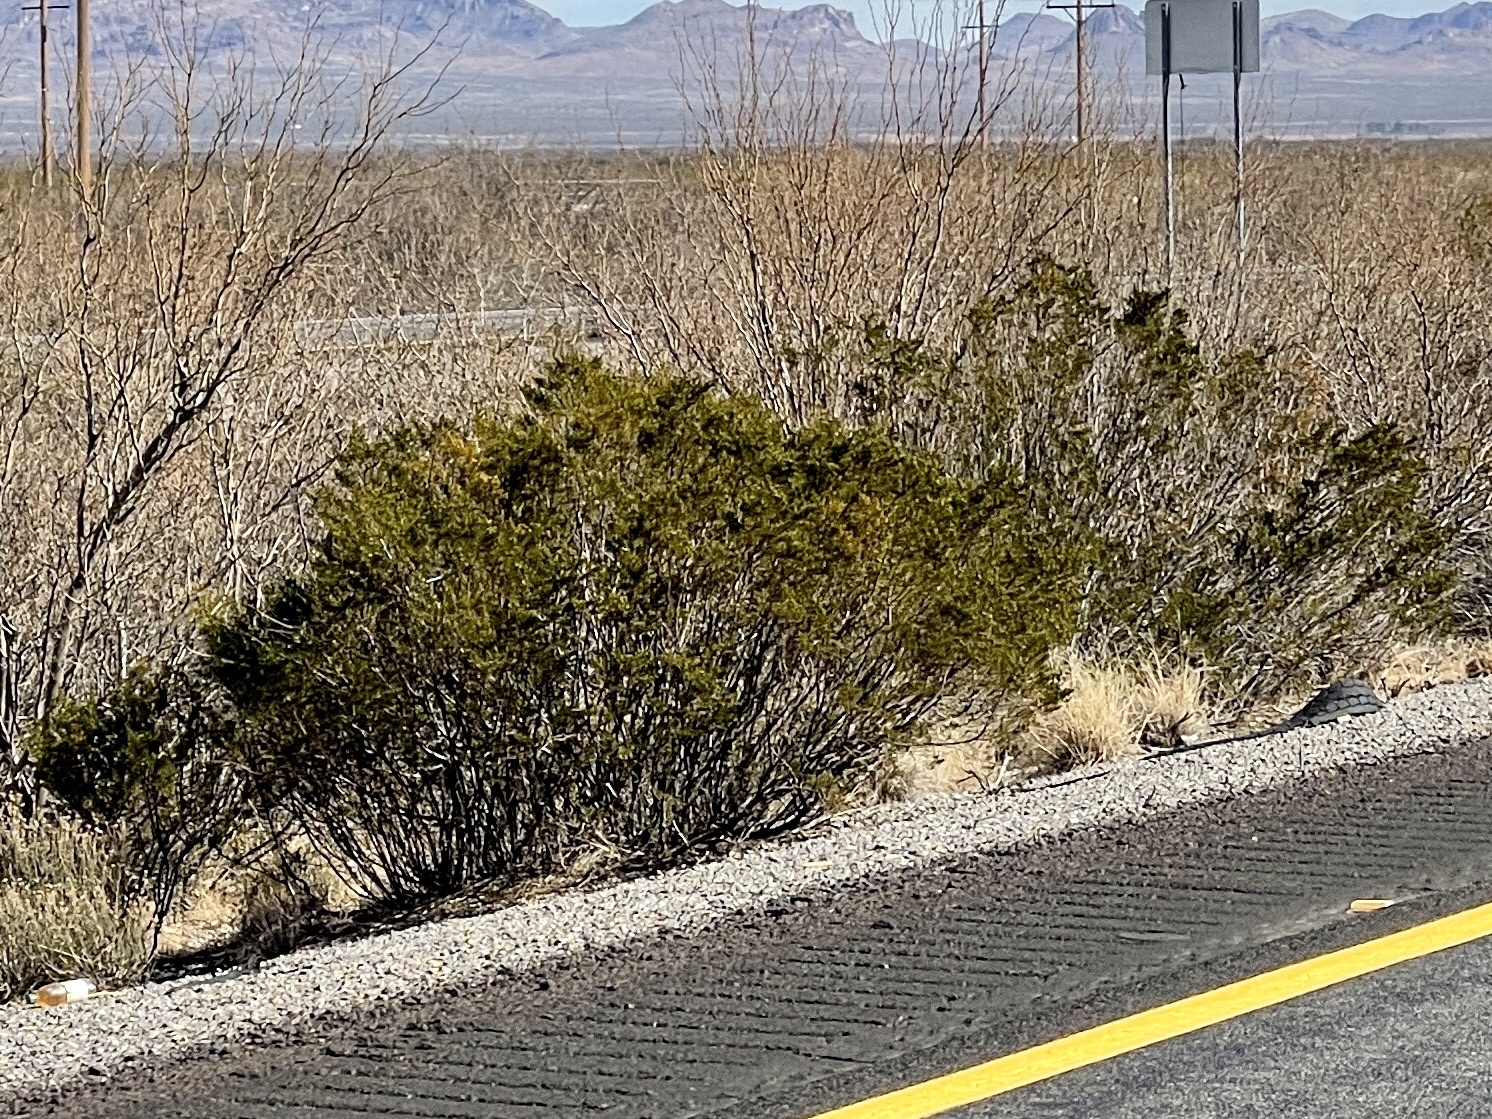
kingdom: Plantae
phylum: Tracheophyta
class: Magnoliopsida
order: Zygophyllales
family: Zygophyllaceae
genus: Larrea
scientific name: Larrea tridentata
